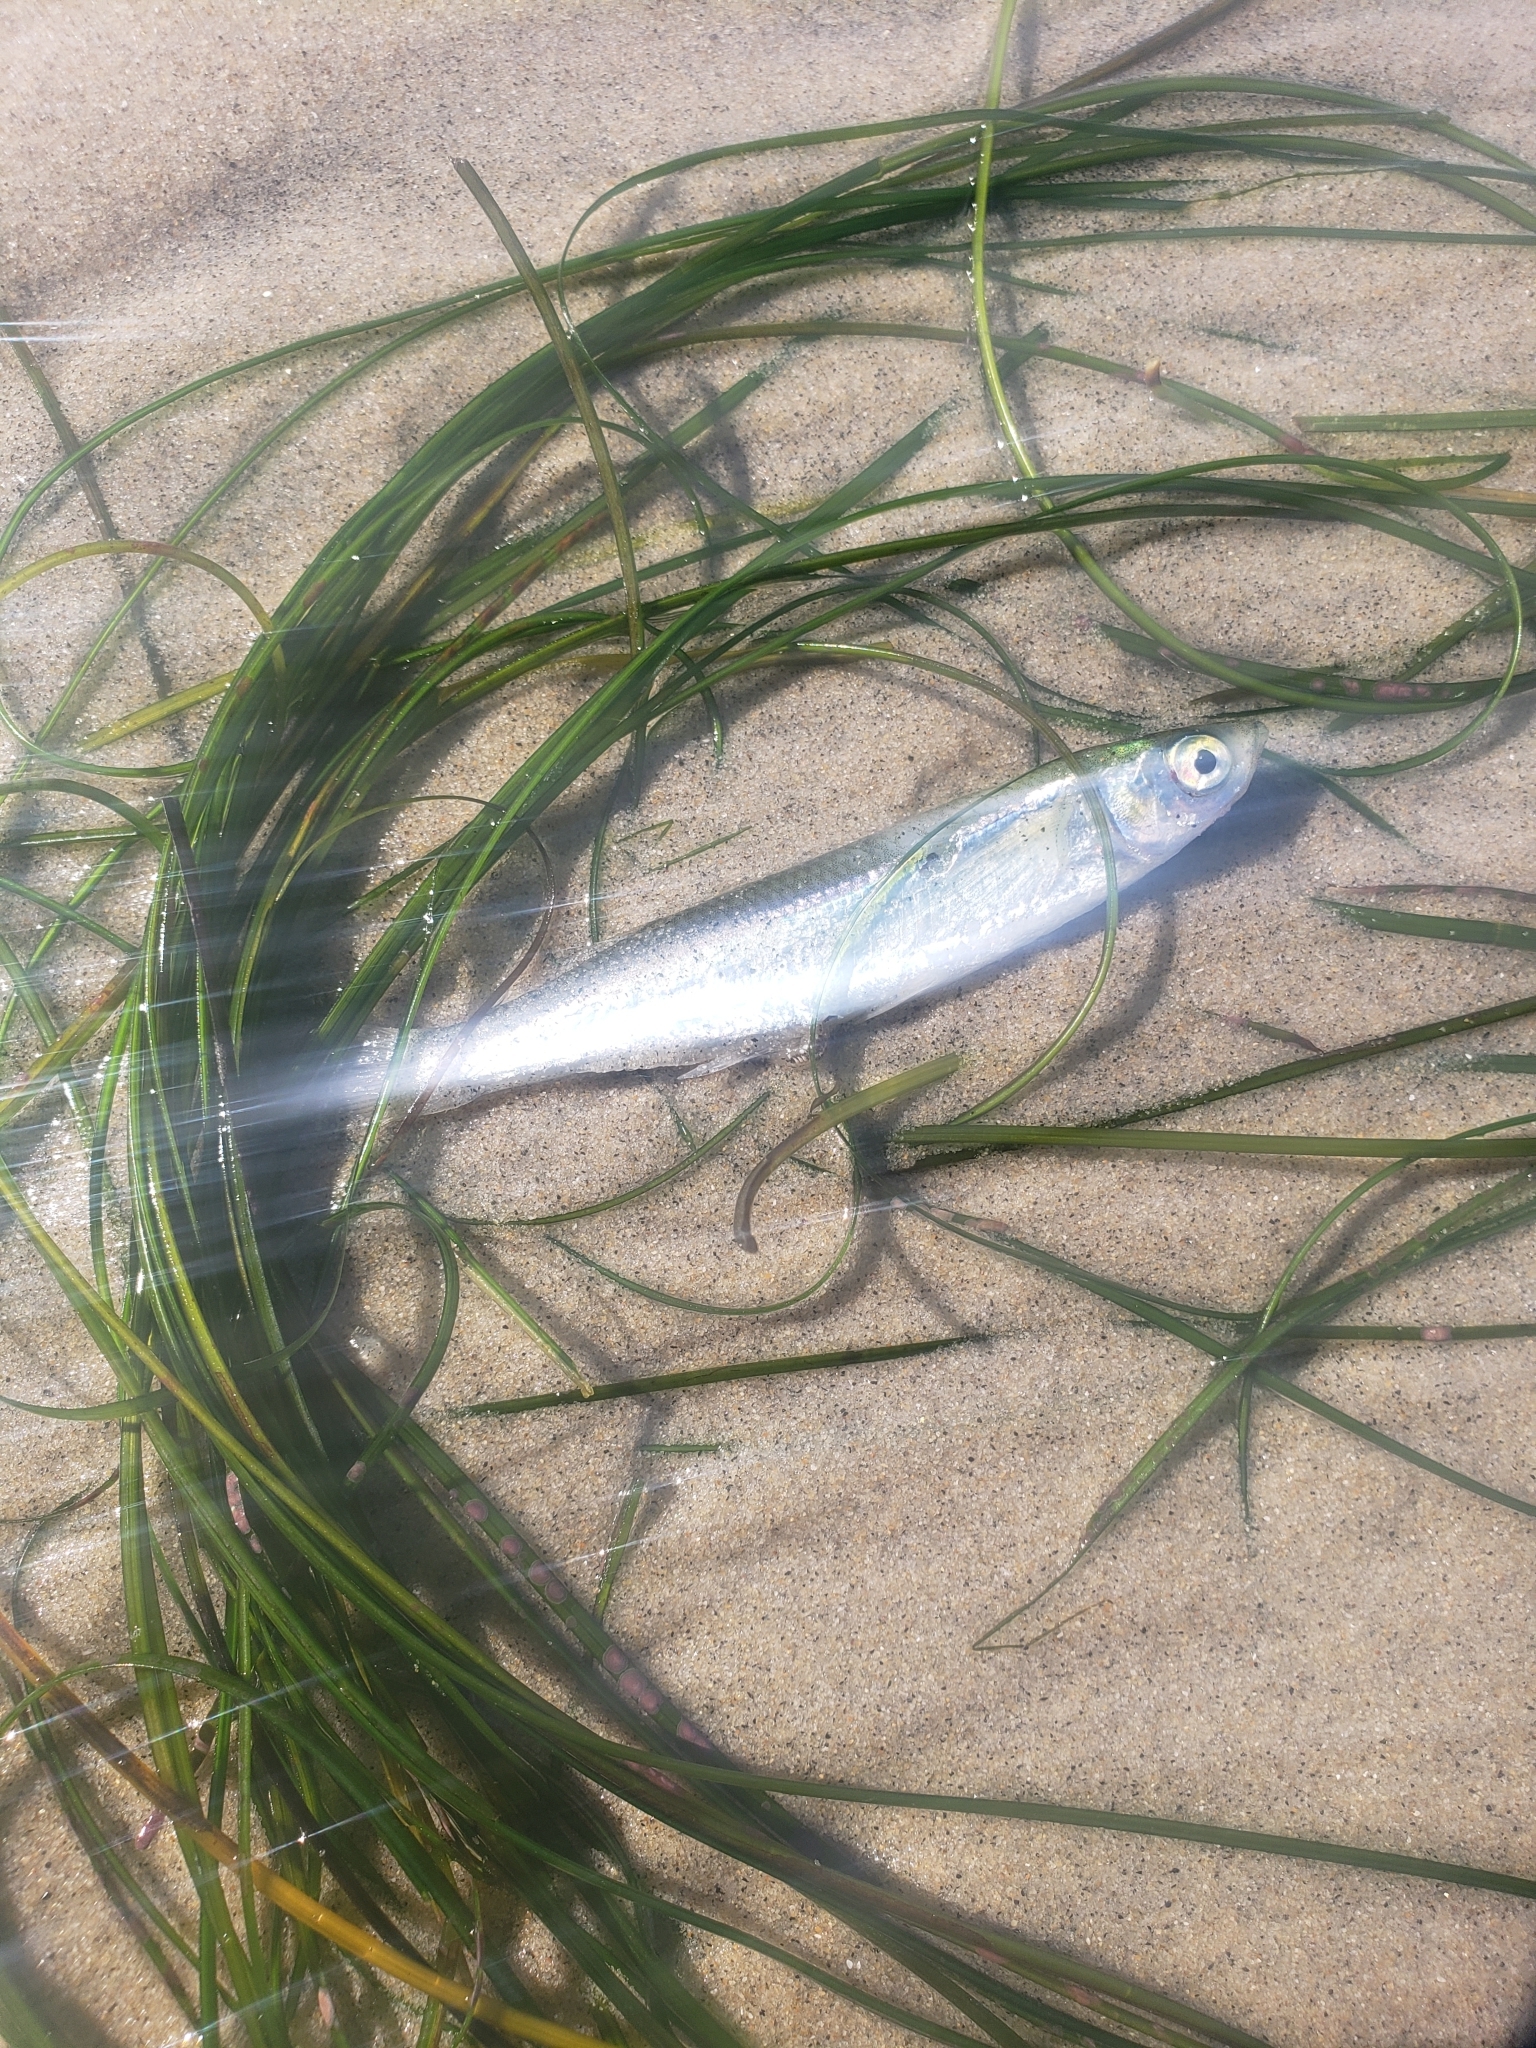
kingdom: Animalia
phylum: Chordata
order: Atheriniformes
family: Atherinopsidae
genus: Atherinops
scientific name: Atherinops affinis
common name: Topsmelt
